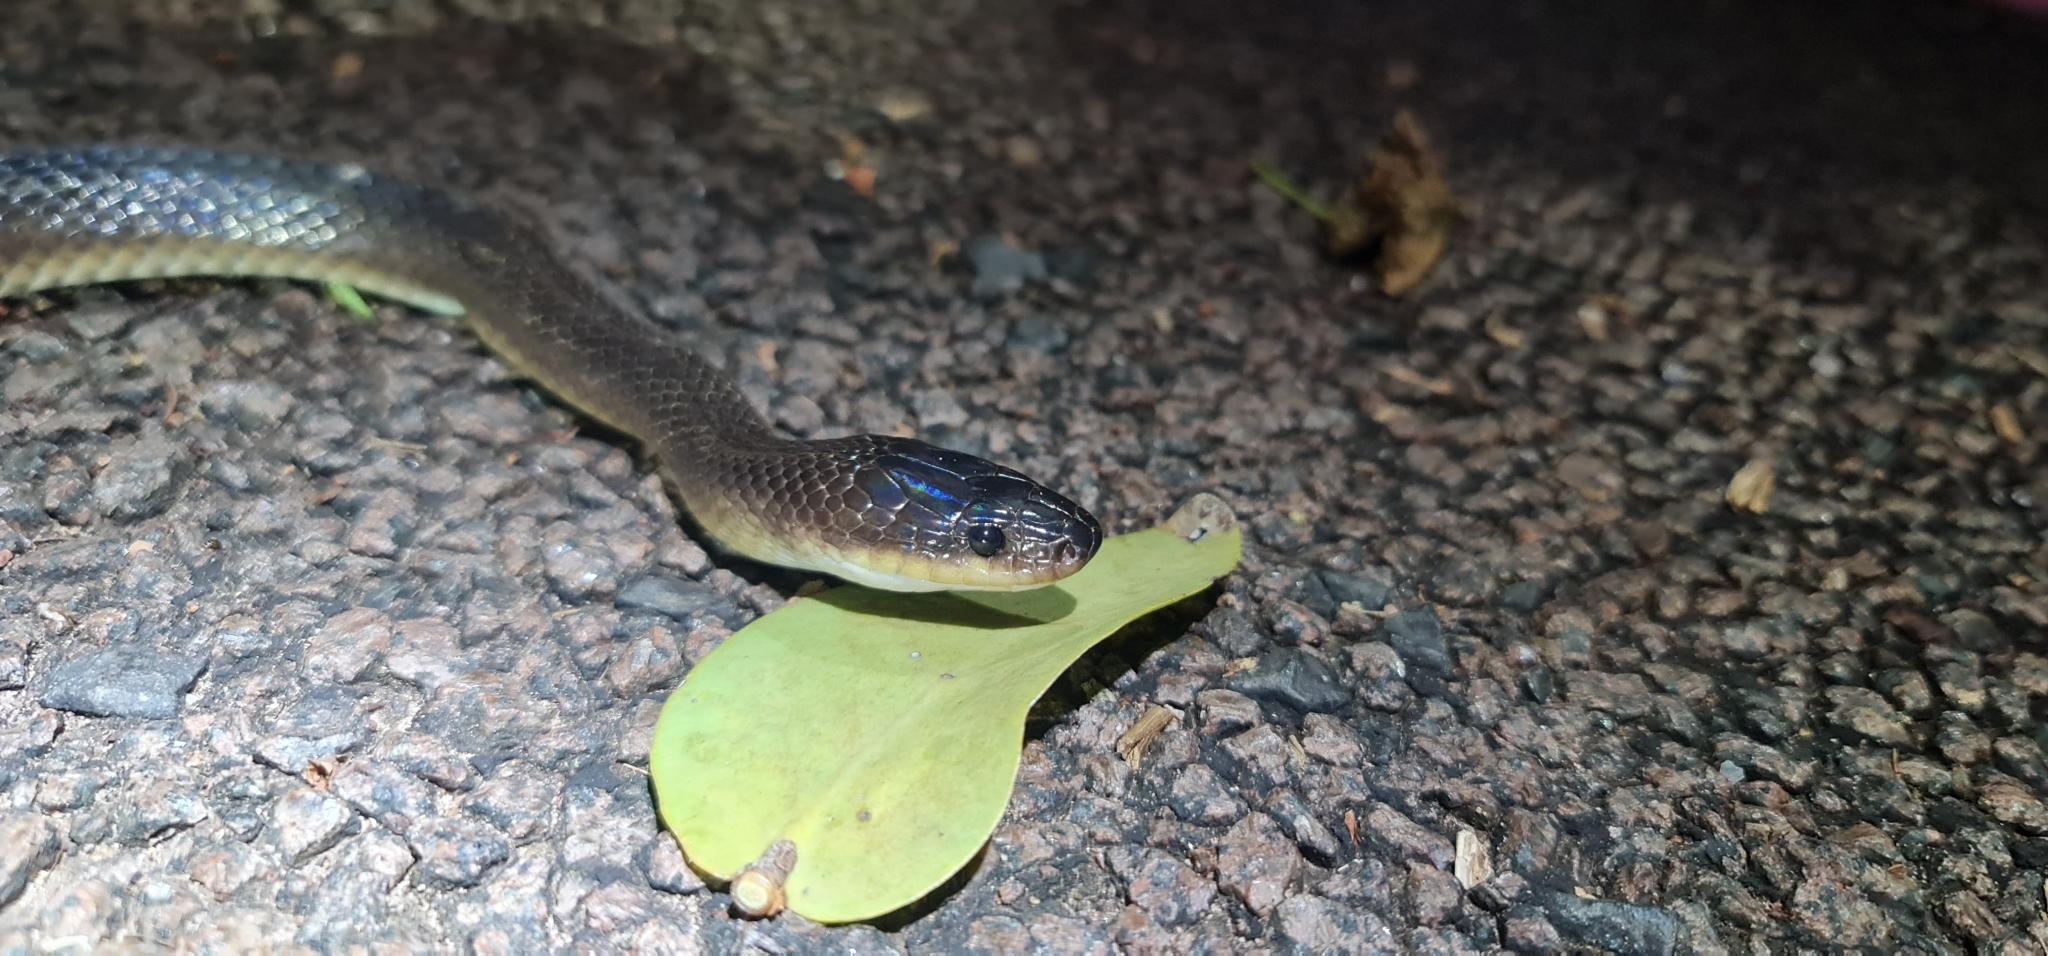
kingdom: Animalia
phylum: Chordata
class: Squamata
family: Colubridae
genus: Stegonotus
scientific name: Stegonotus australis
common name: Australian groundsnake
